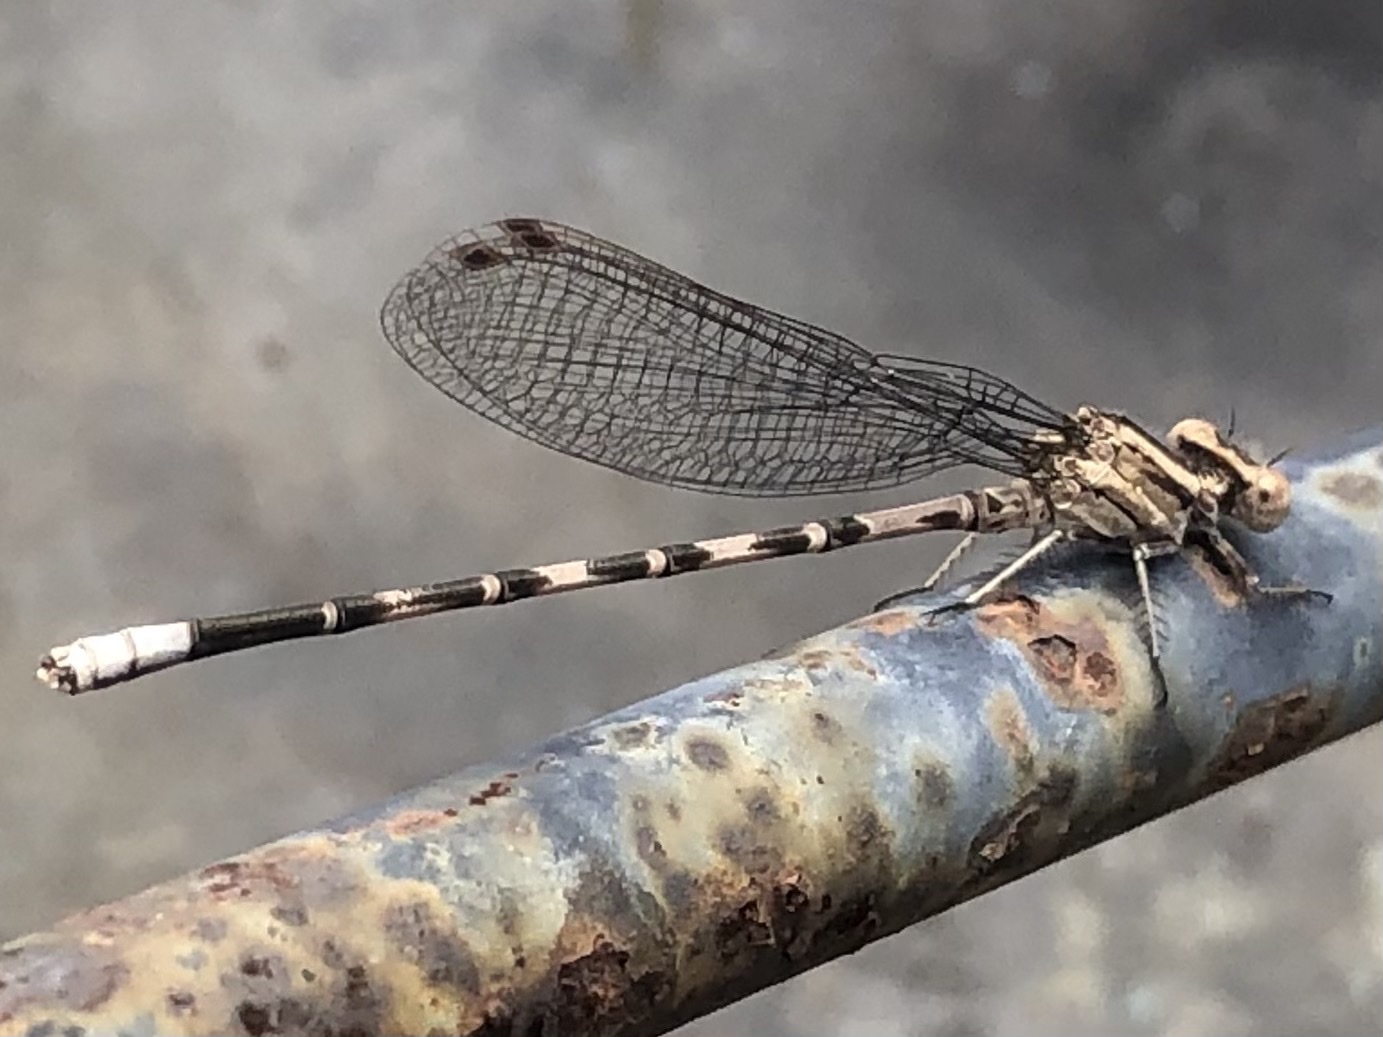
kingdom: Animalia
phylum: Arthropoda
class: Insecta
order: Odonata
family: Coenagrionidae
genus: Argia
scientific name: Argia immunda
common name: Kiowa dancer
